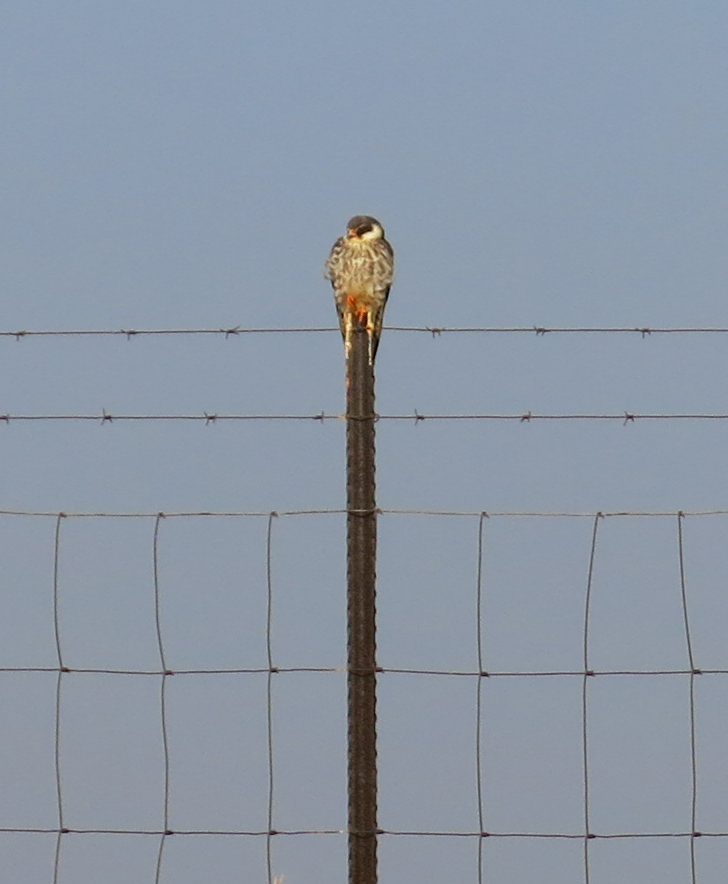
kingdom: Animalia
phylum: Chordata
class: Aves
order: Falconiformes
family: Falconidae
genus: Falco
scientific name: Falco amurensis
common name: Amur falcon
